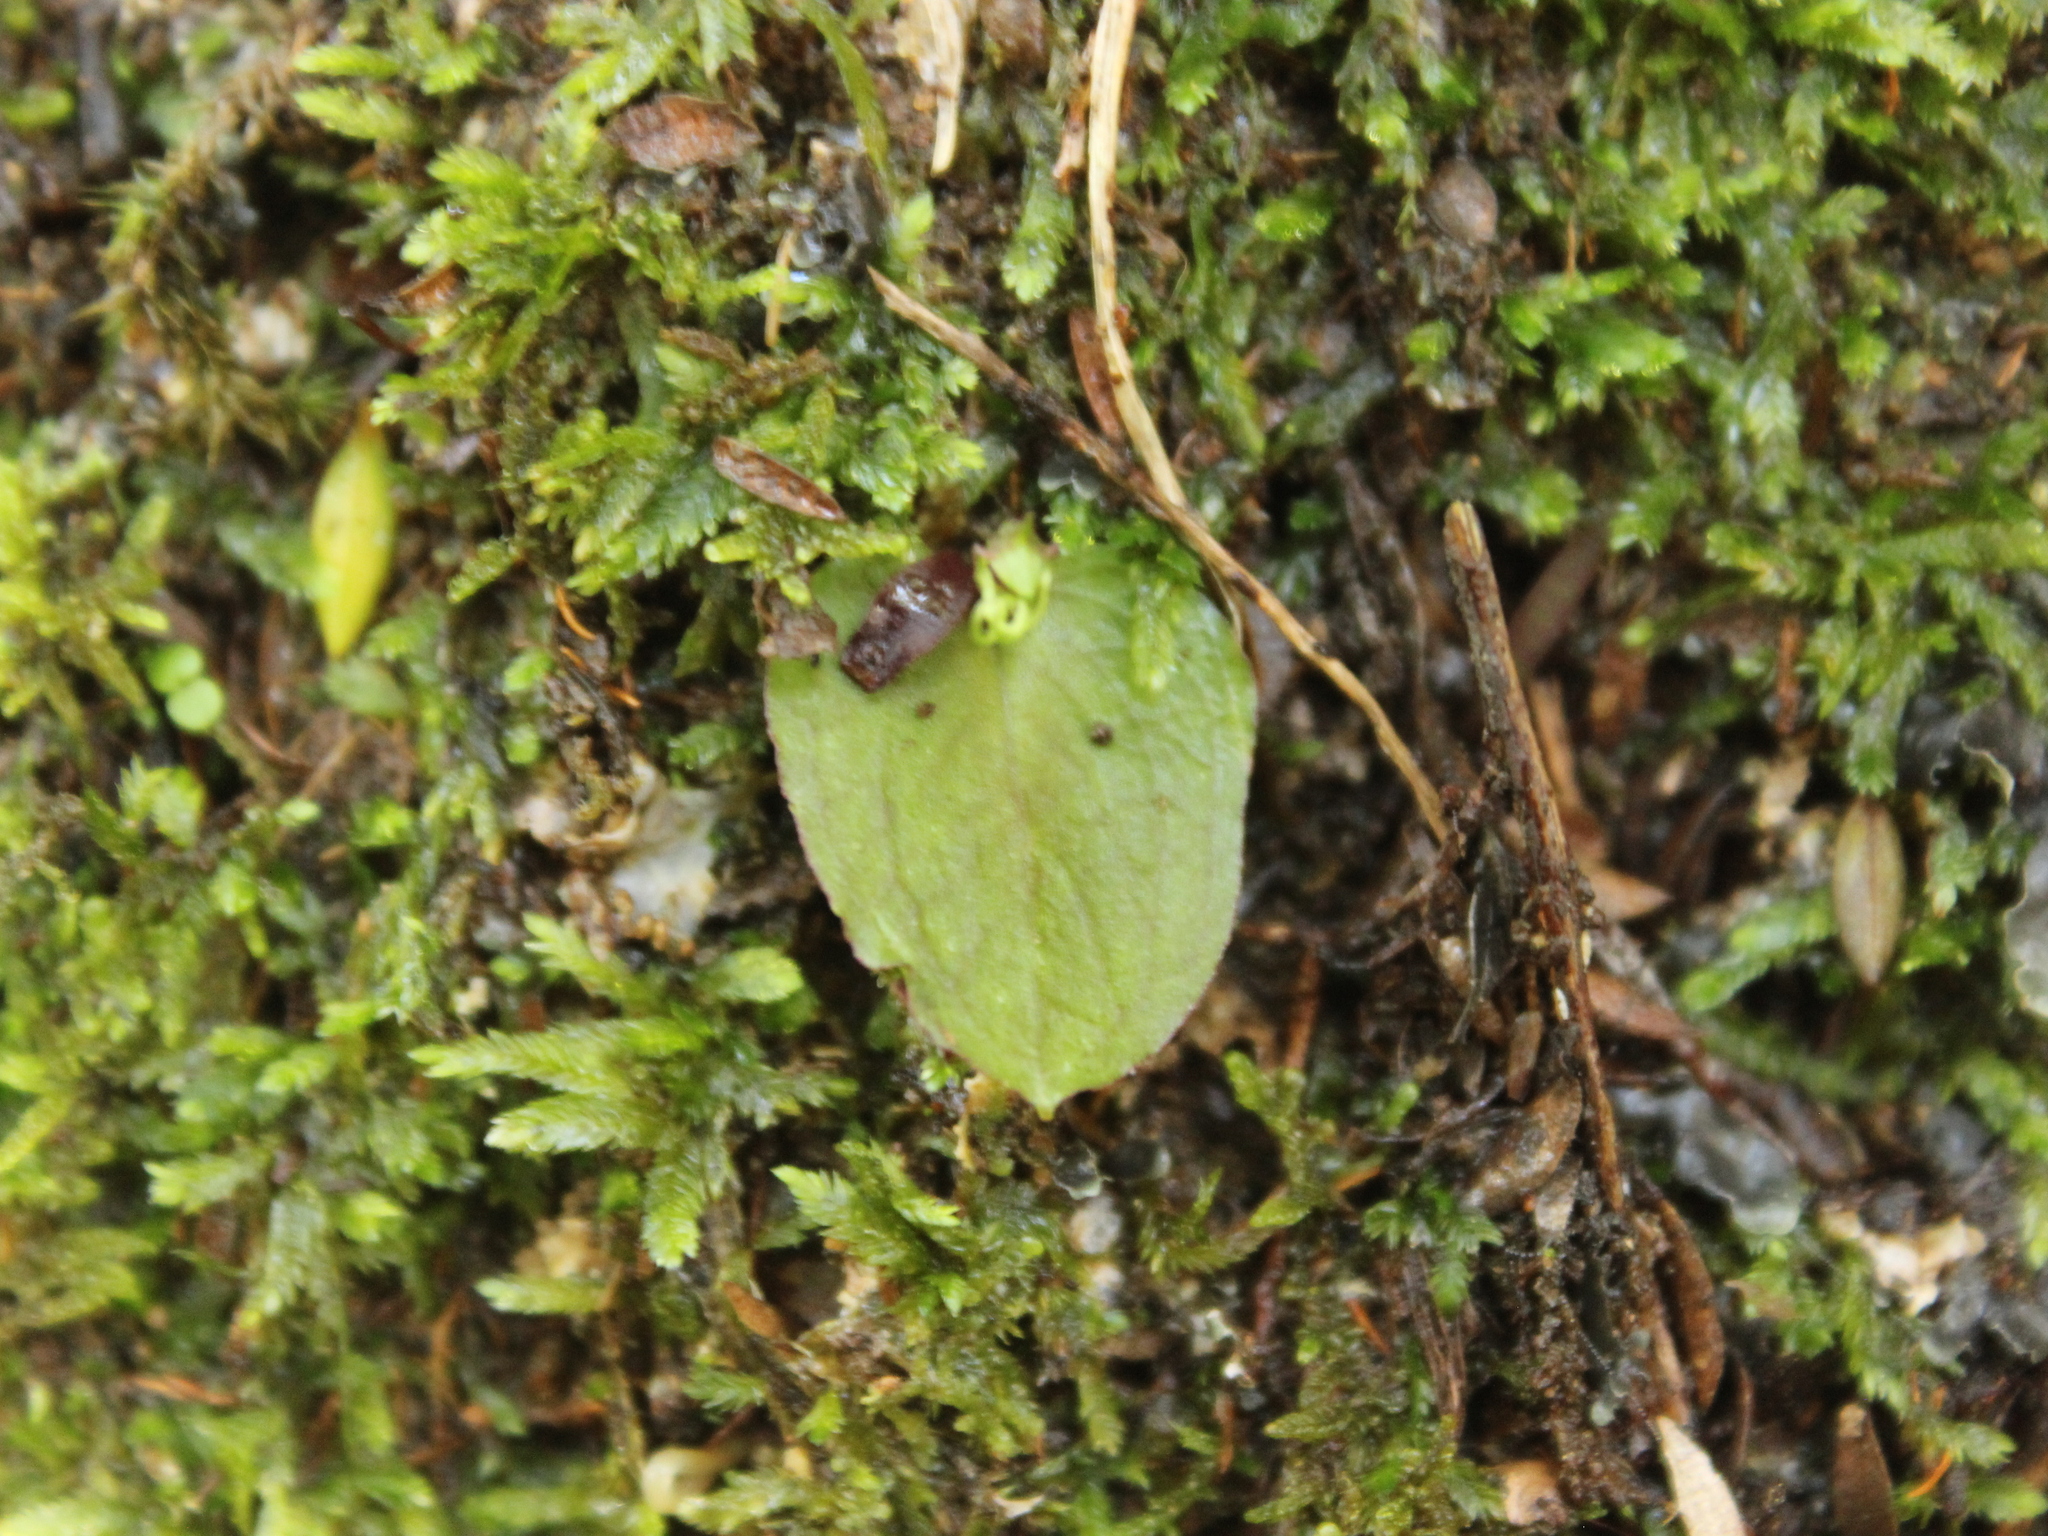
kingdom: Plantae
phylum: Tracheophyta
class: Liliopsida
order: Asparagales
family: Orchidaceae
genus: Corybas
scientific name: Corybas oblongus
